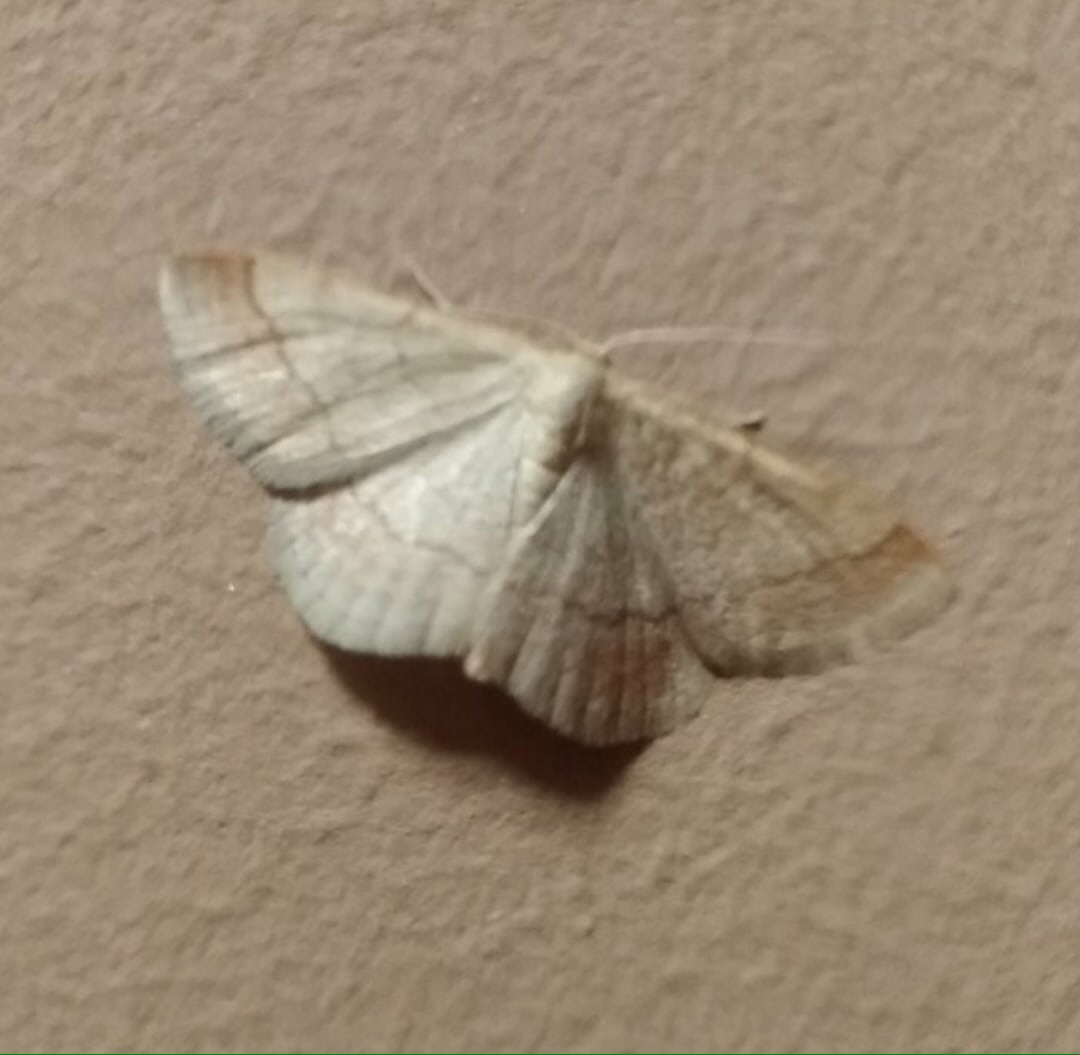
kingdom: Animalia
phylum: Arthropoda
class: Insecta
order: Lepidoptera
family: Geometridae
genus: Scopula
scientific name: Scopula rubiginata
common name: Tawny wave
